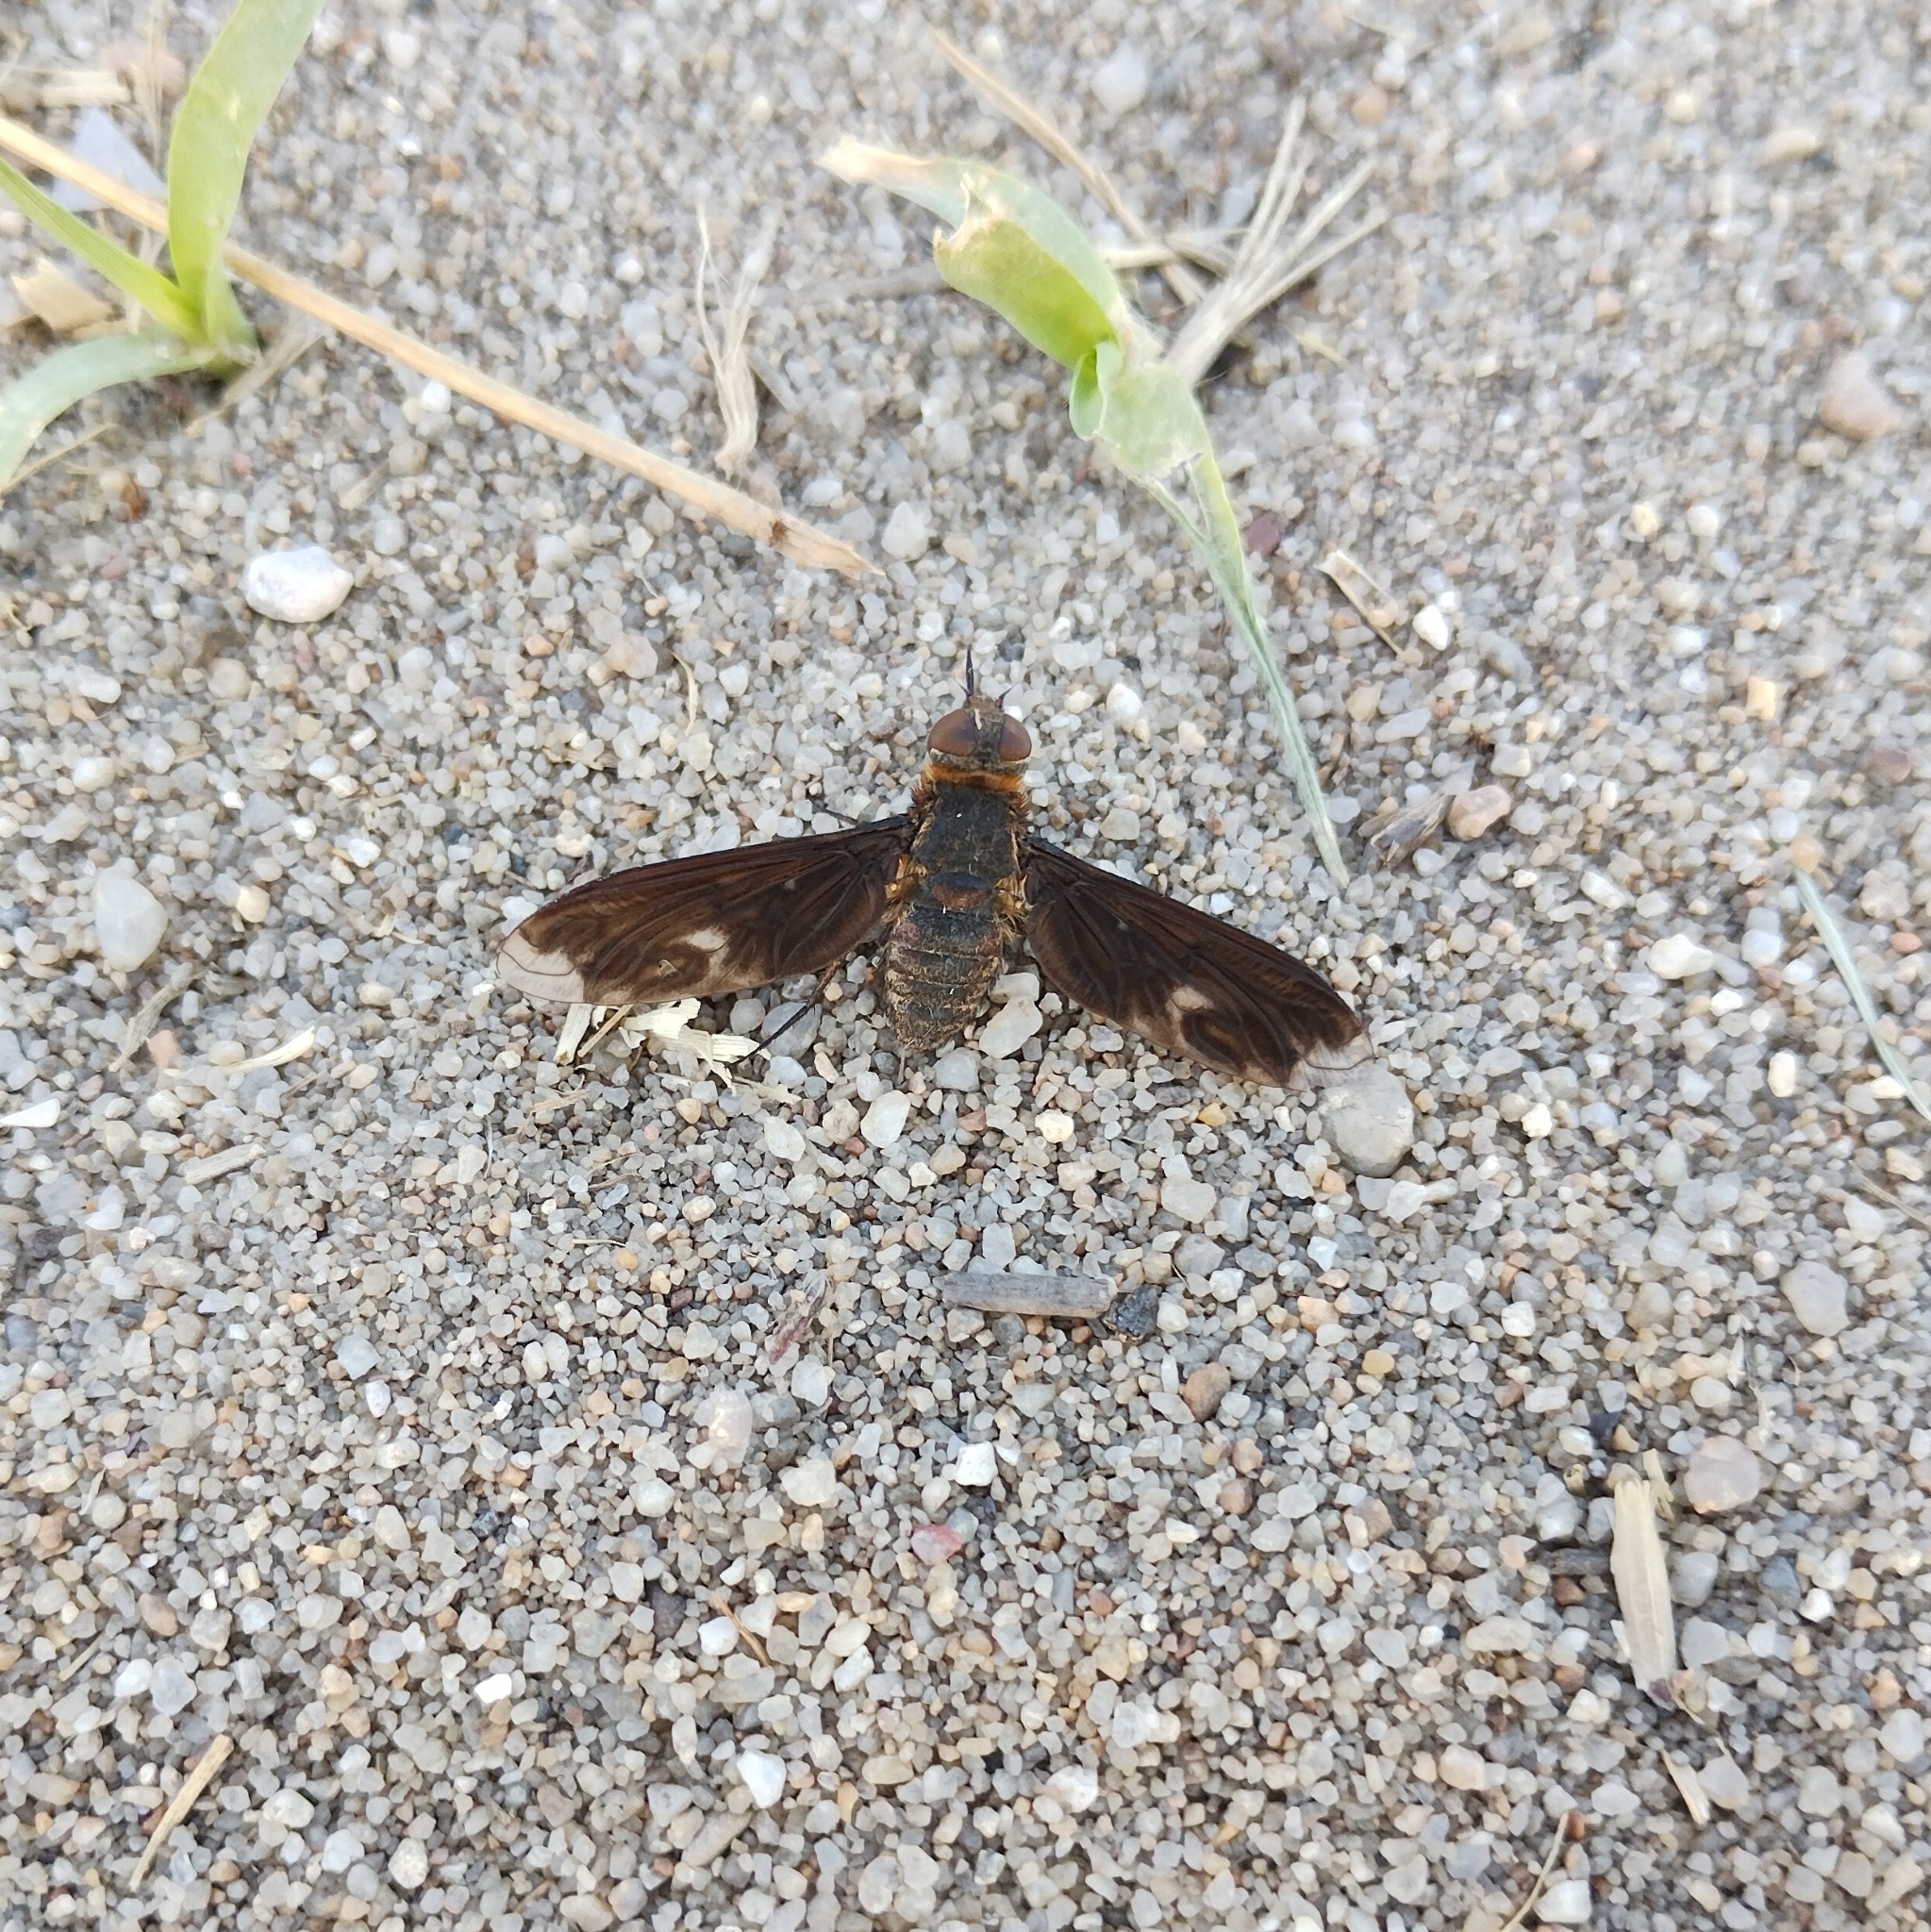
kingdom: Animalia
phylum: Arthropoda
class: Insecta
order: Diptera
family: Bombyliidae
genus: Heteralonia
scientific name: Heteralonia megerlei
